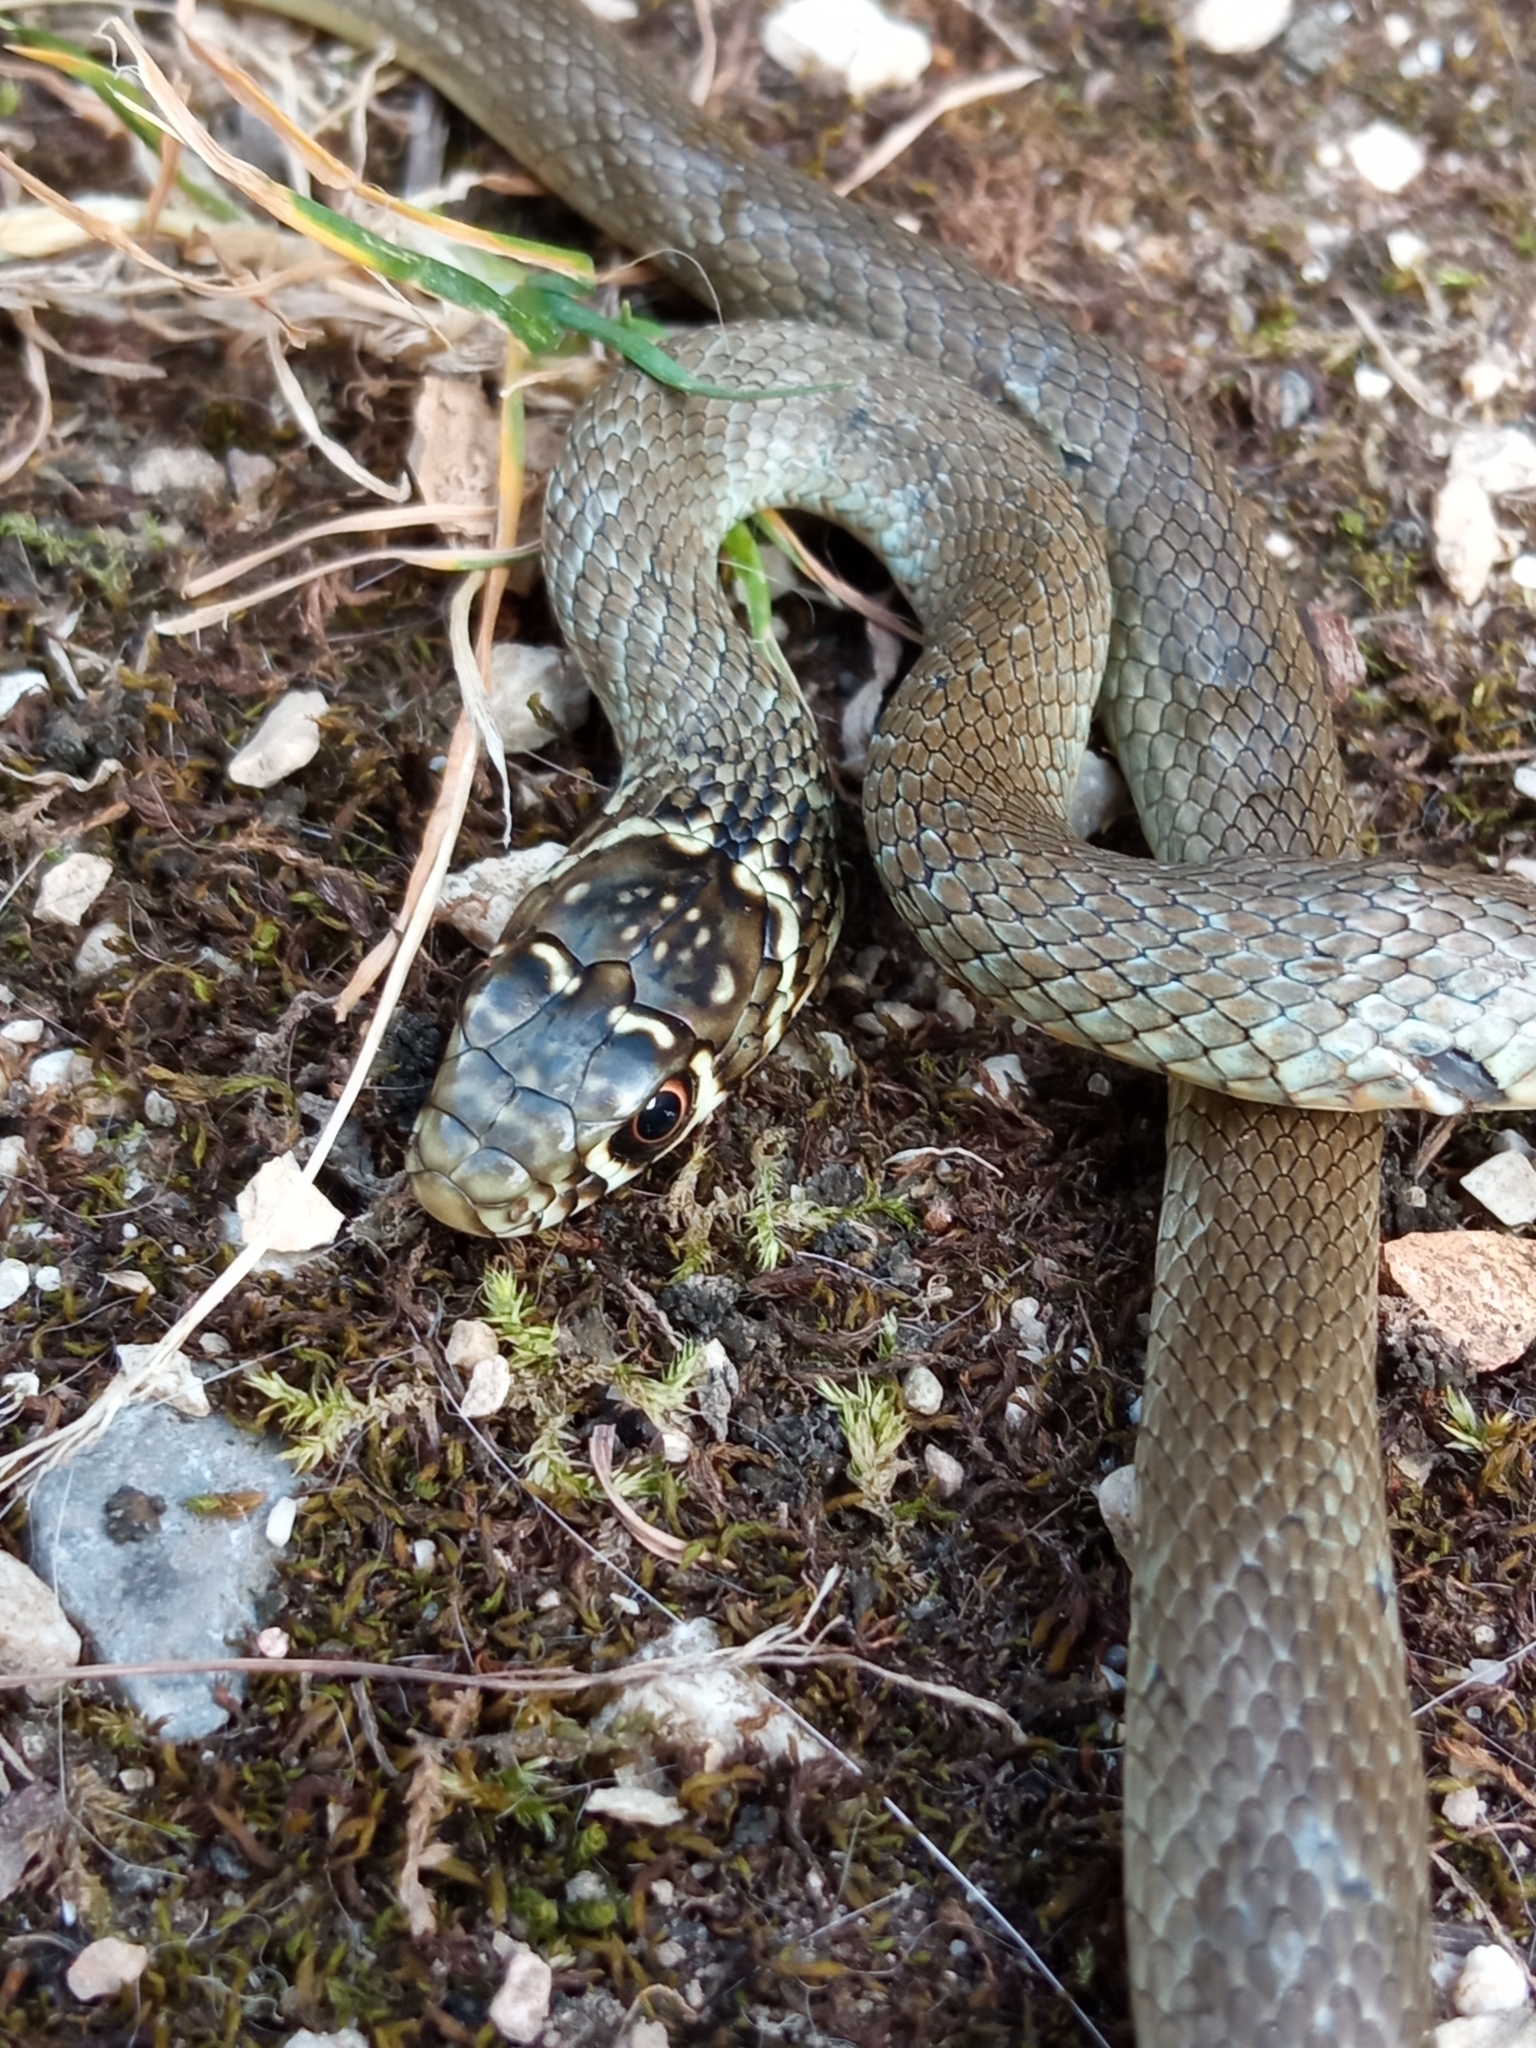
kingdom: Animalia
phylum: Chordata
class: Squamata
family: Colubridae
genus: Hierophis
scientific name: Hierophis viridiflavus
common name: Green whip snake
